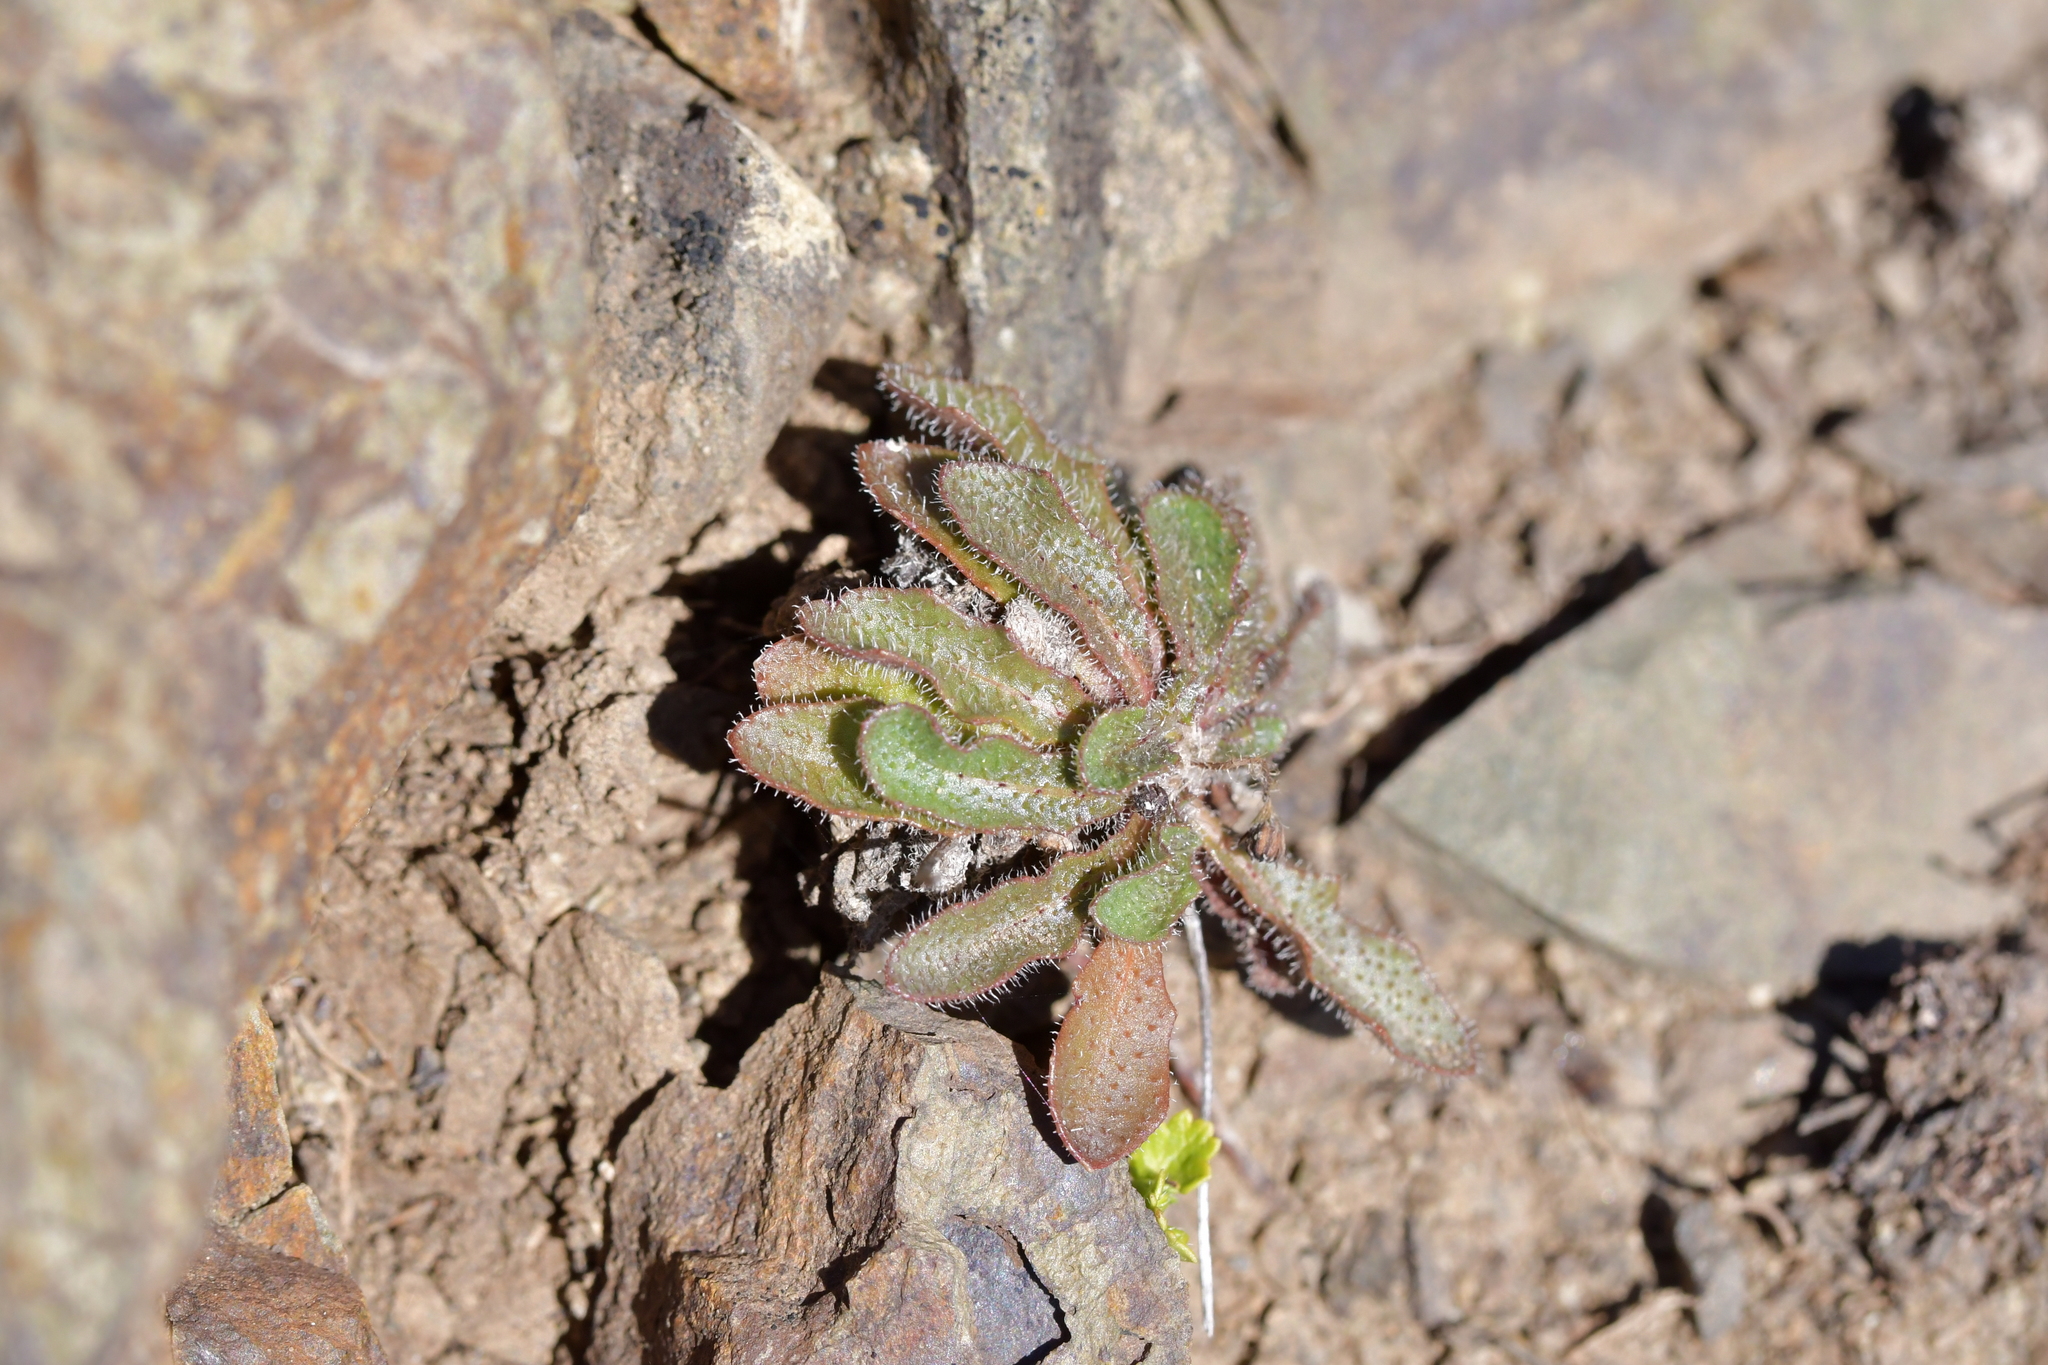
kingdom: Plantae
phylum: Tracheophyta
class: Magnoliopsida
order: Asterales
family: Asteraceae
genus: Hypochaeris
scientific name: Hypochaeris radicata
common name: Flatweed
